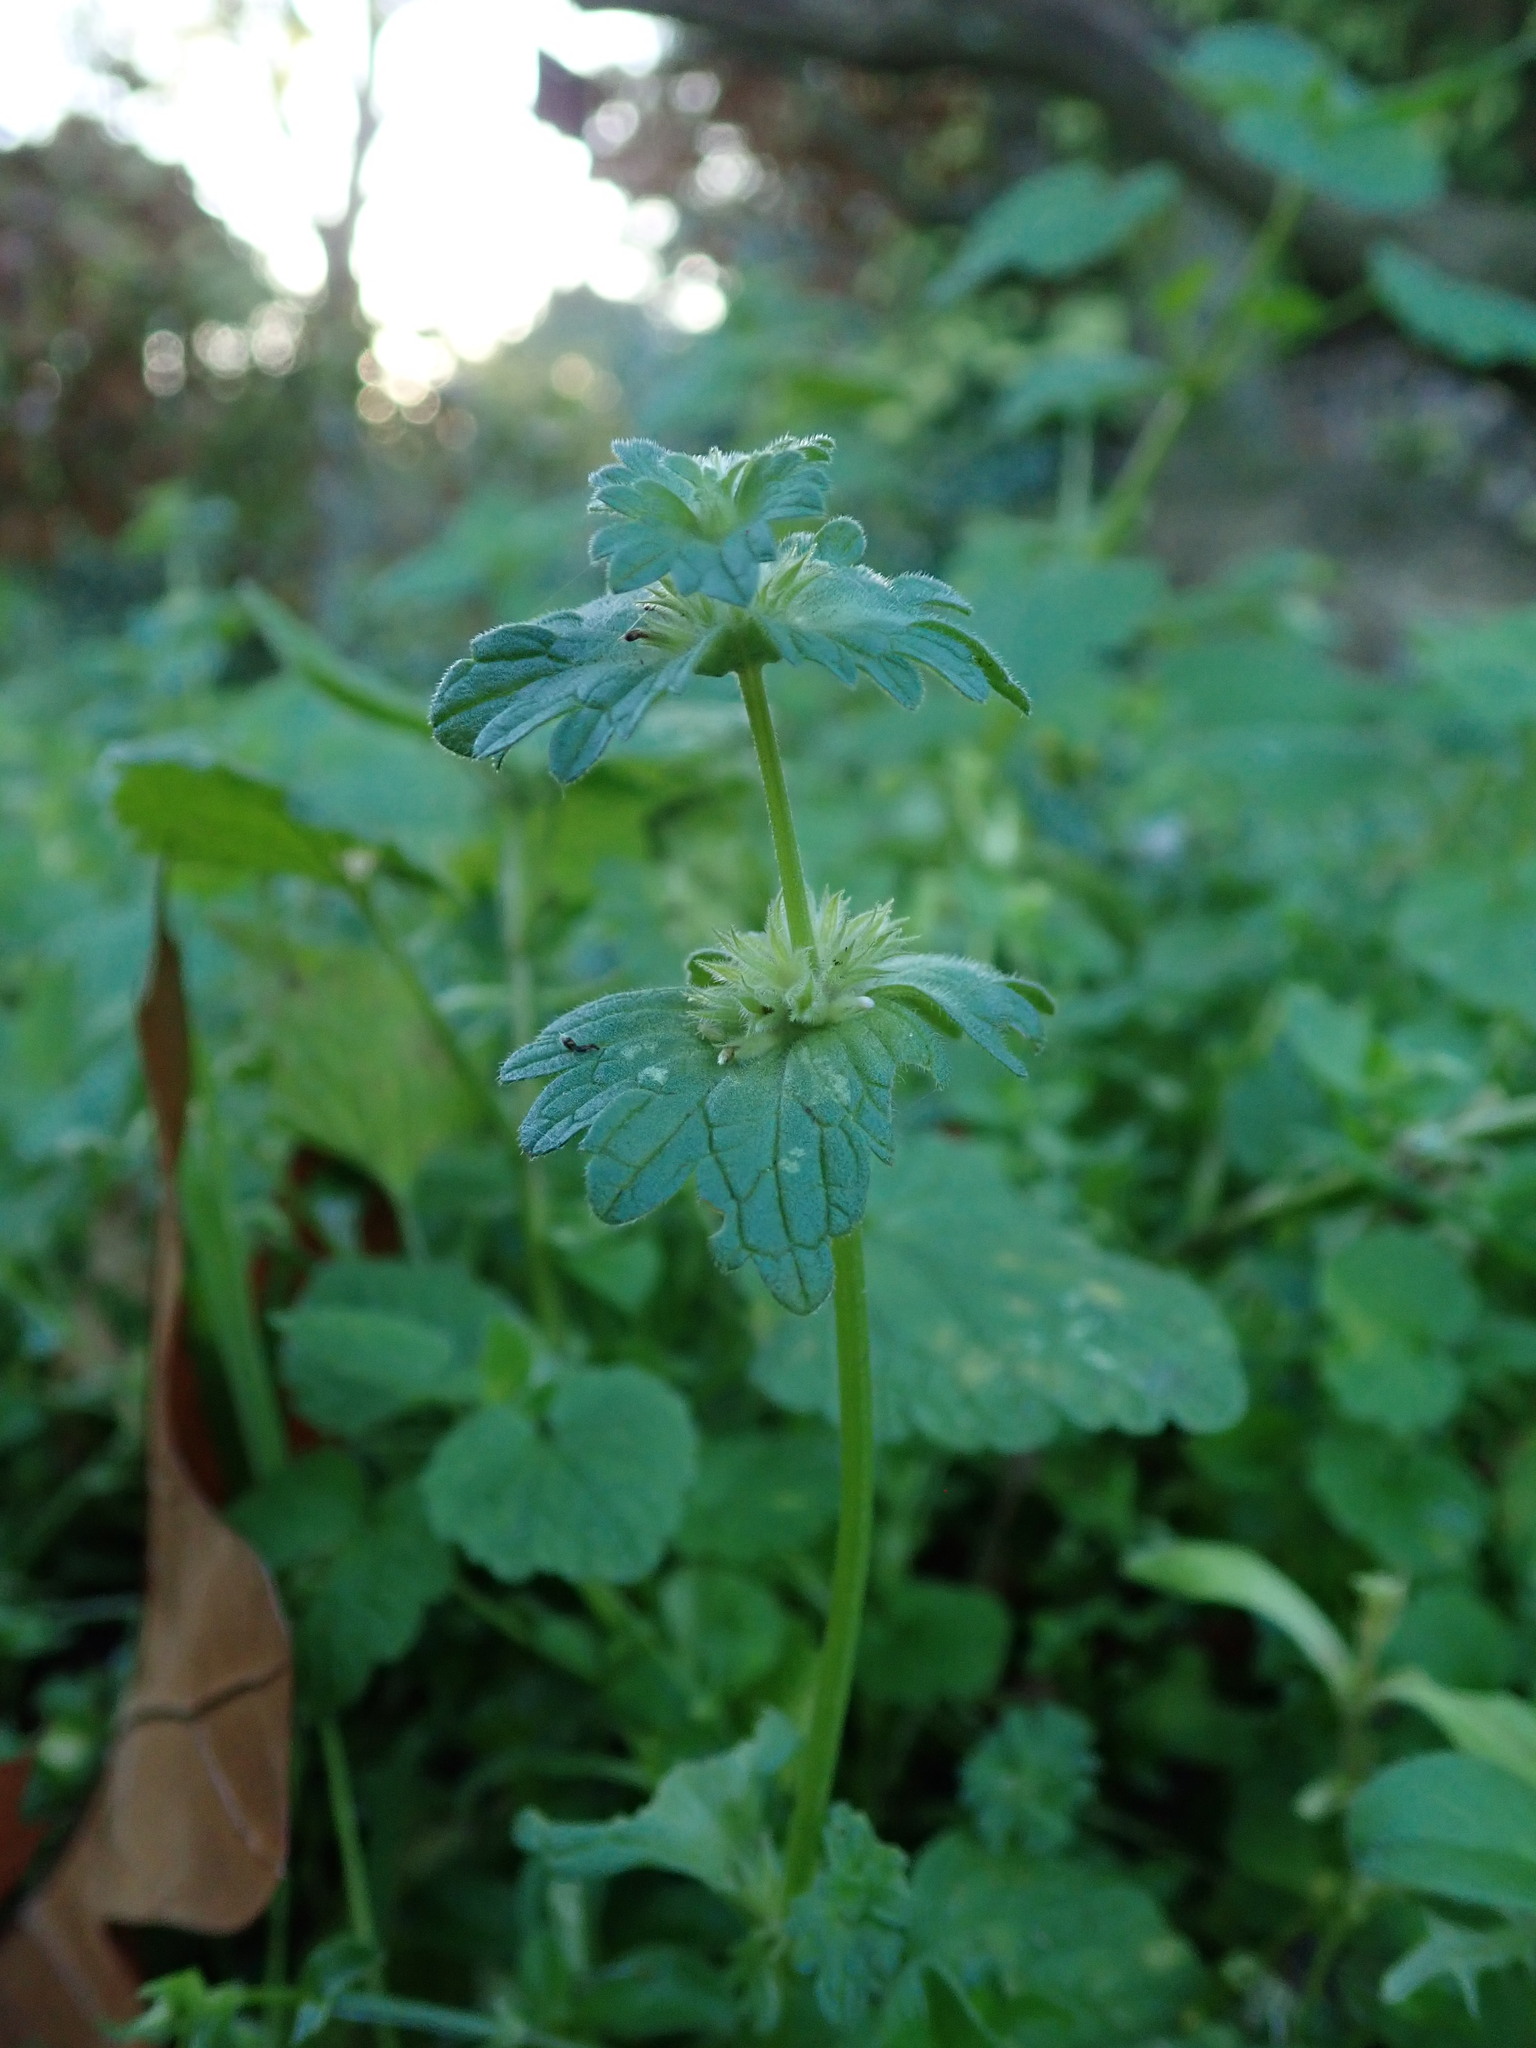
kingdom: Plantae
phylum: Tracheophyta
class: Magnoliopsida
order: Lamiales
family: Lamiaceae
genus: Lamium
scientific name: Lamium amplexicaule
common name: Henbit dead-nettle
